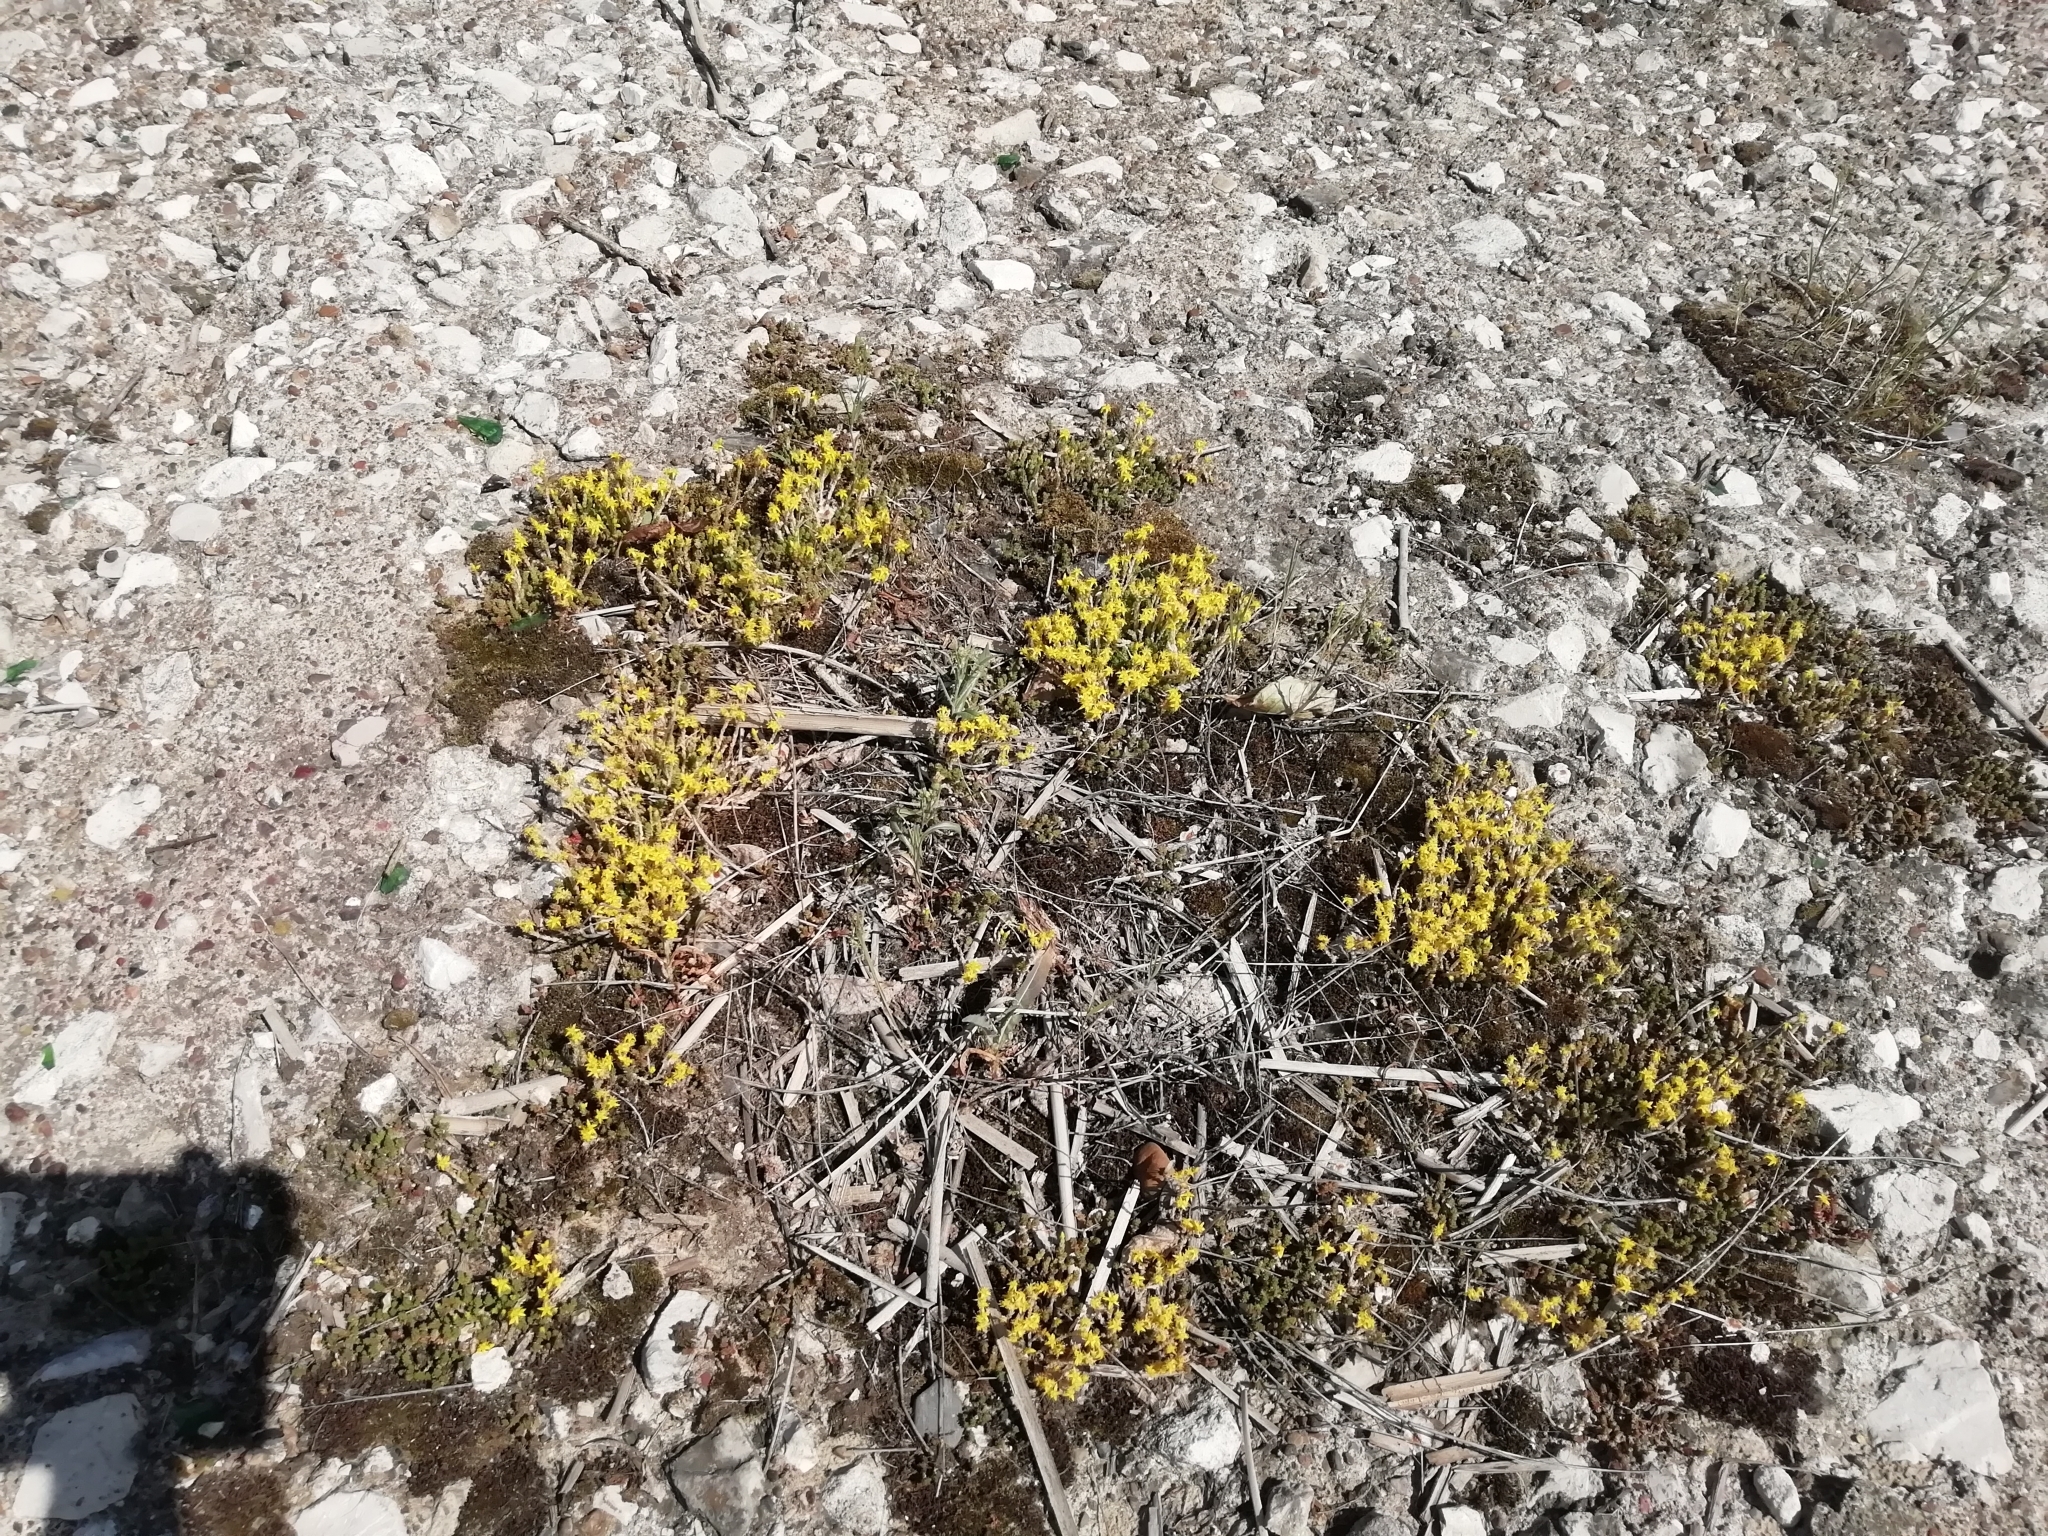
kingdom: Plantae
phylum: Tracheophyta
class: Magnoliopsida
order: Saxifragales
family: Crassulaceae
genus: Sedum
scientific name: Sedum acre
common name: Biting stonecrop
